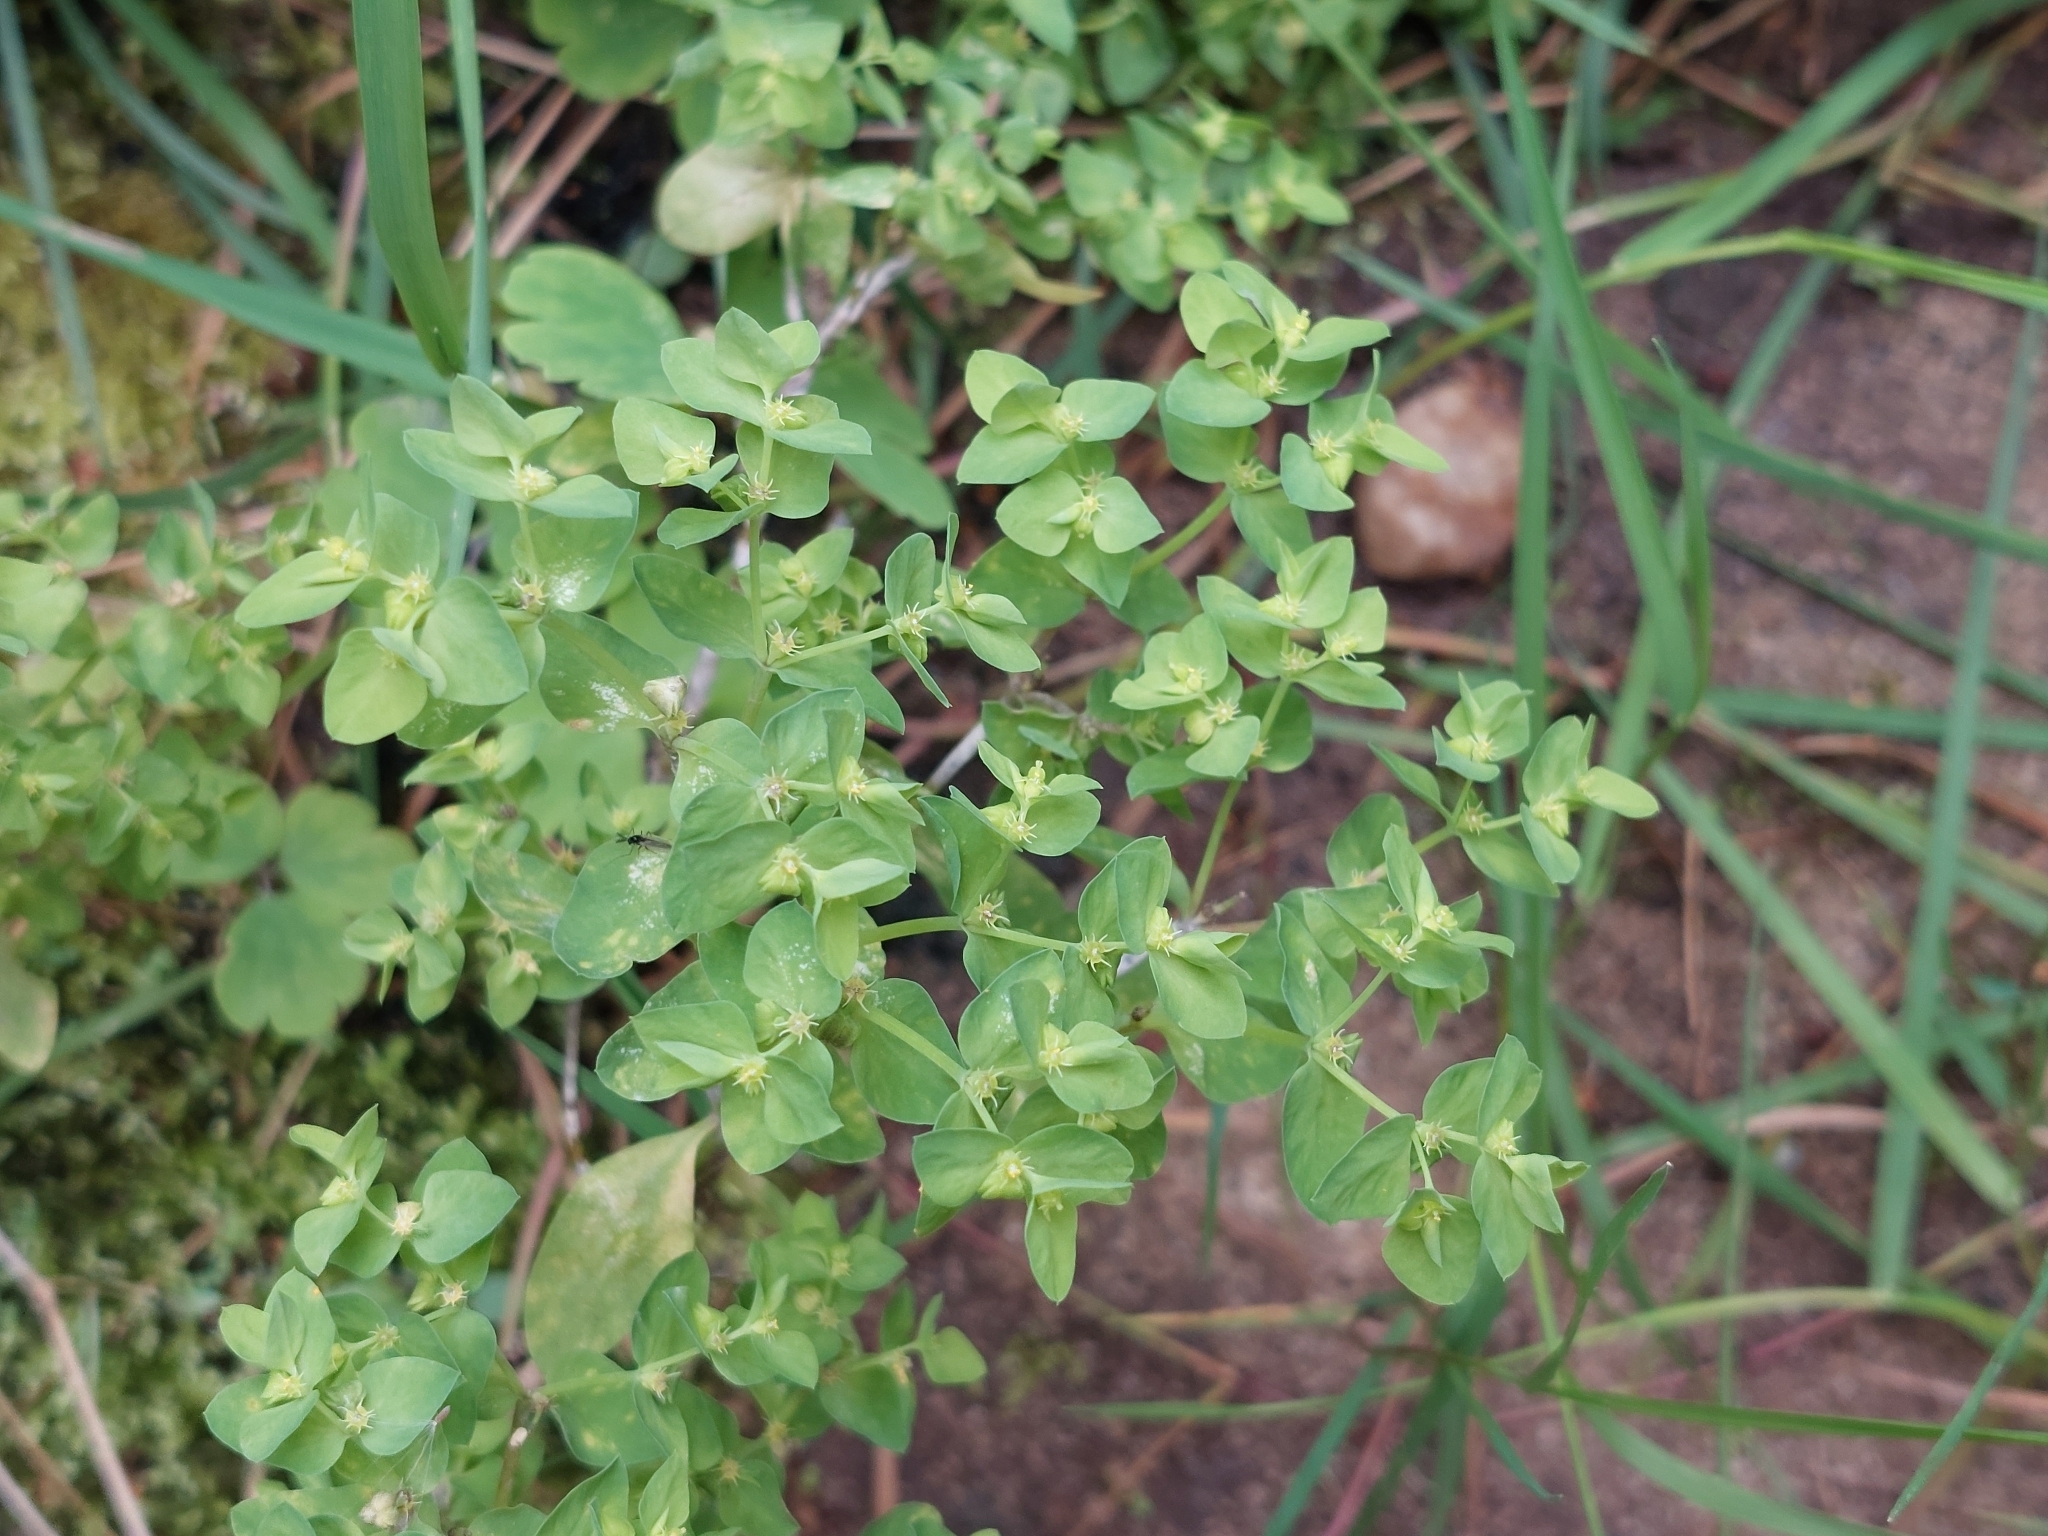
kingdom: Plantae
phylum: Tracheophyta
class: Magnoliopsida
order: Malpighiales
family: Euphorbiaceae
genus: Euphorbia
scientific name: Euphorbia peplus
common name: Petty spurge
